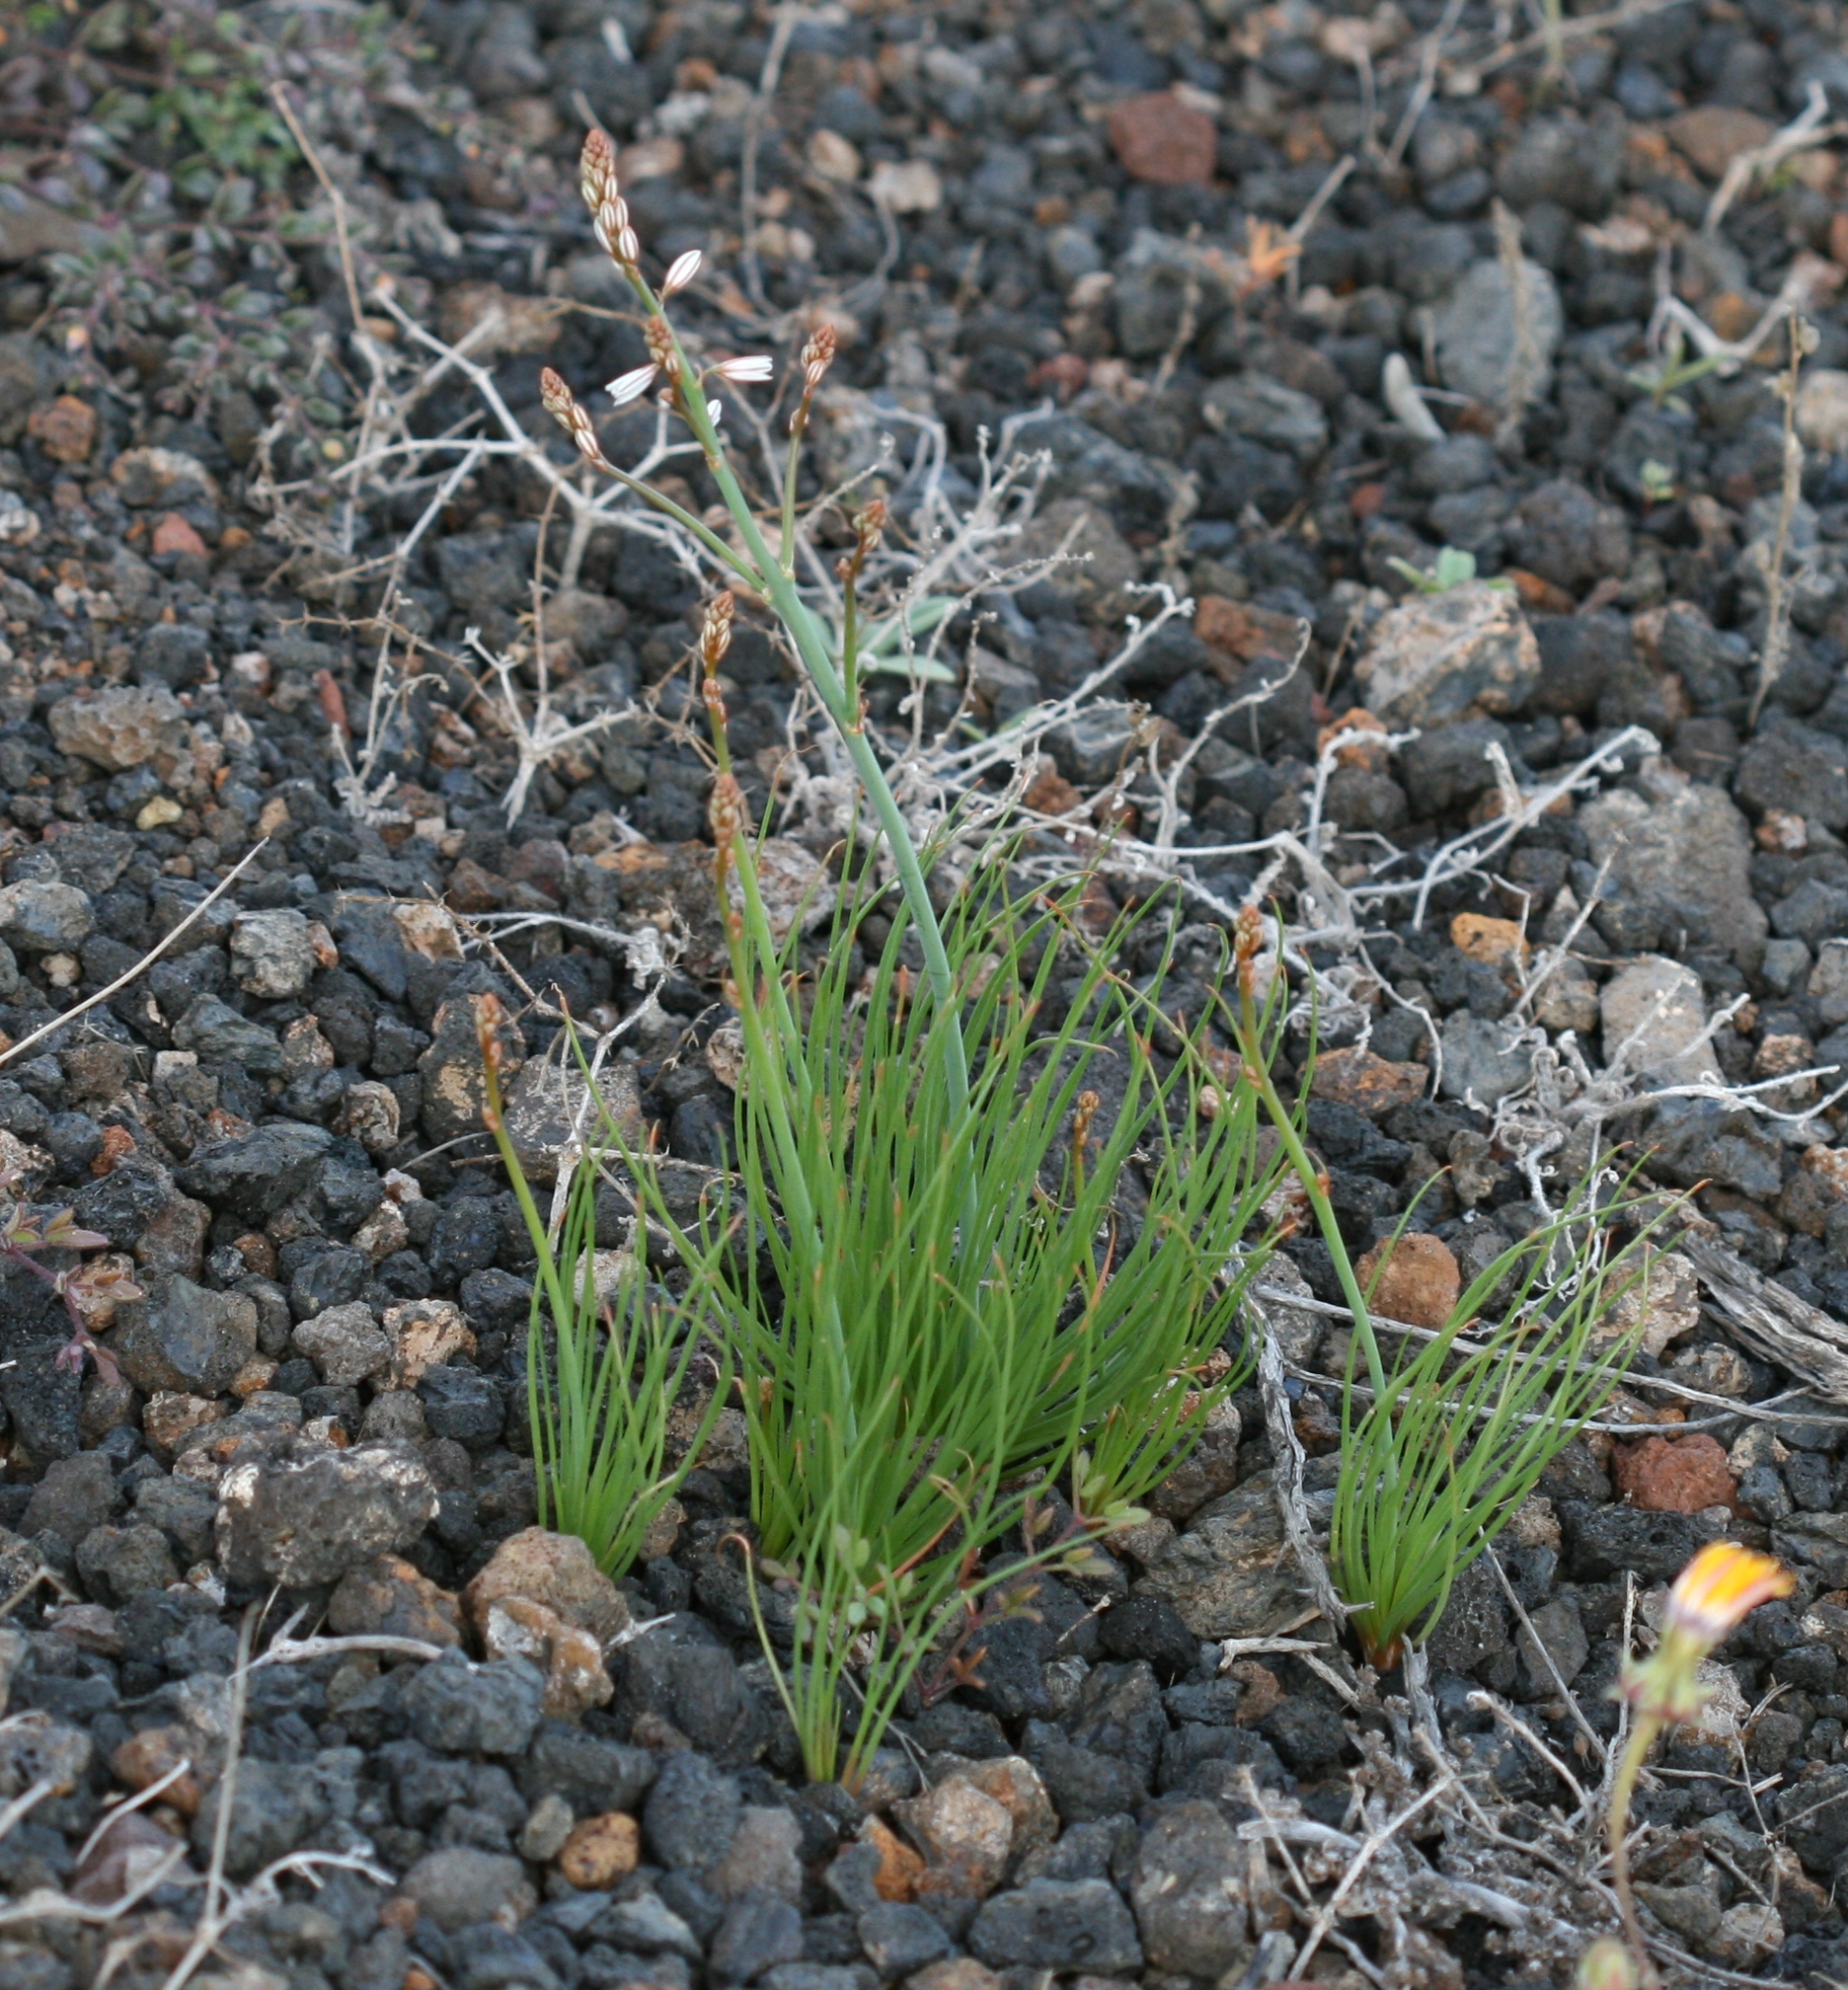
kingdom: Plantae
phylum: Tracheophyta
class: Liliopsida
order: Asparagales
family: Asphodelaceae
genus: Asphodelus
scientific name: Asphodelus tenuifolius
